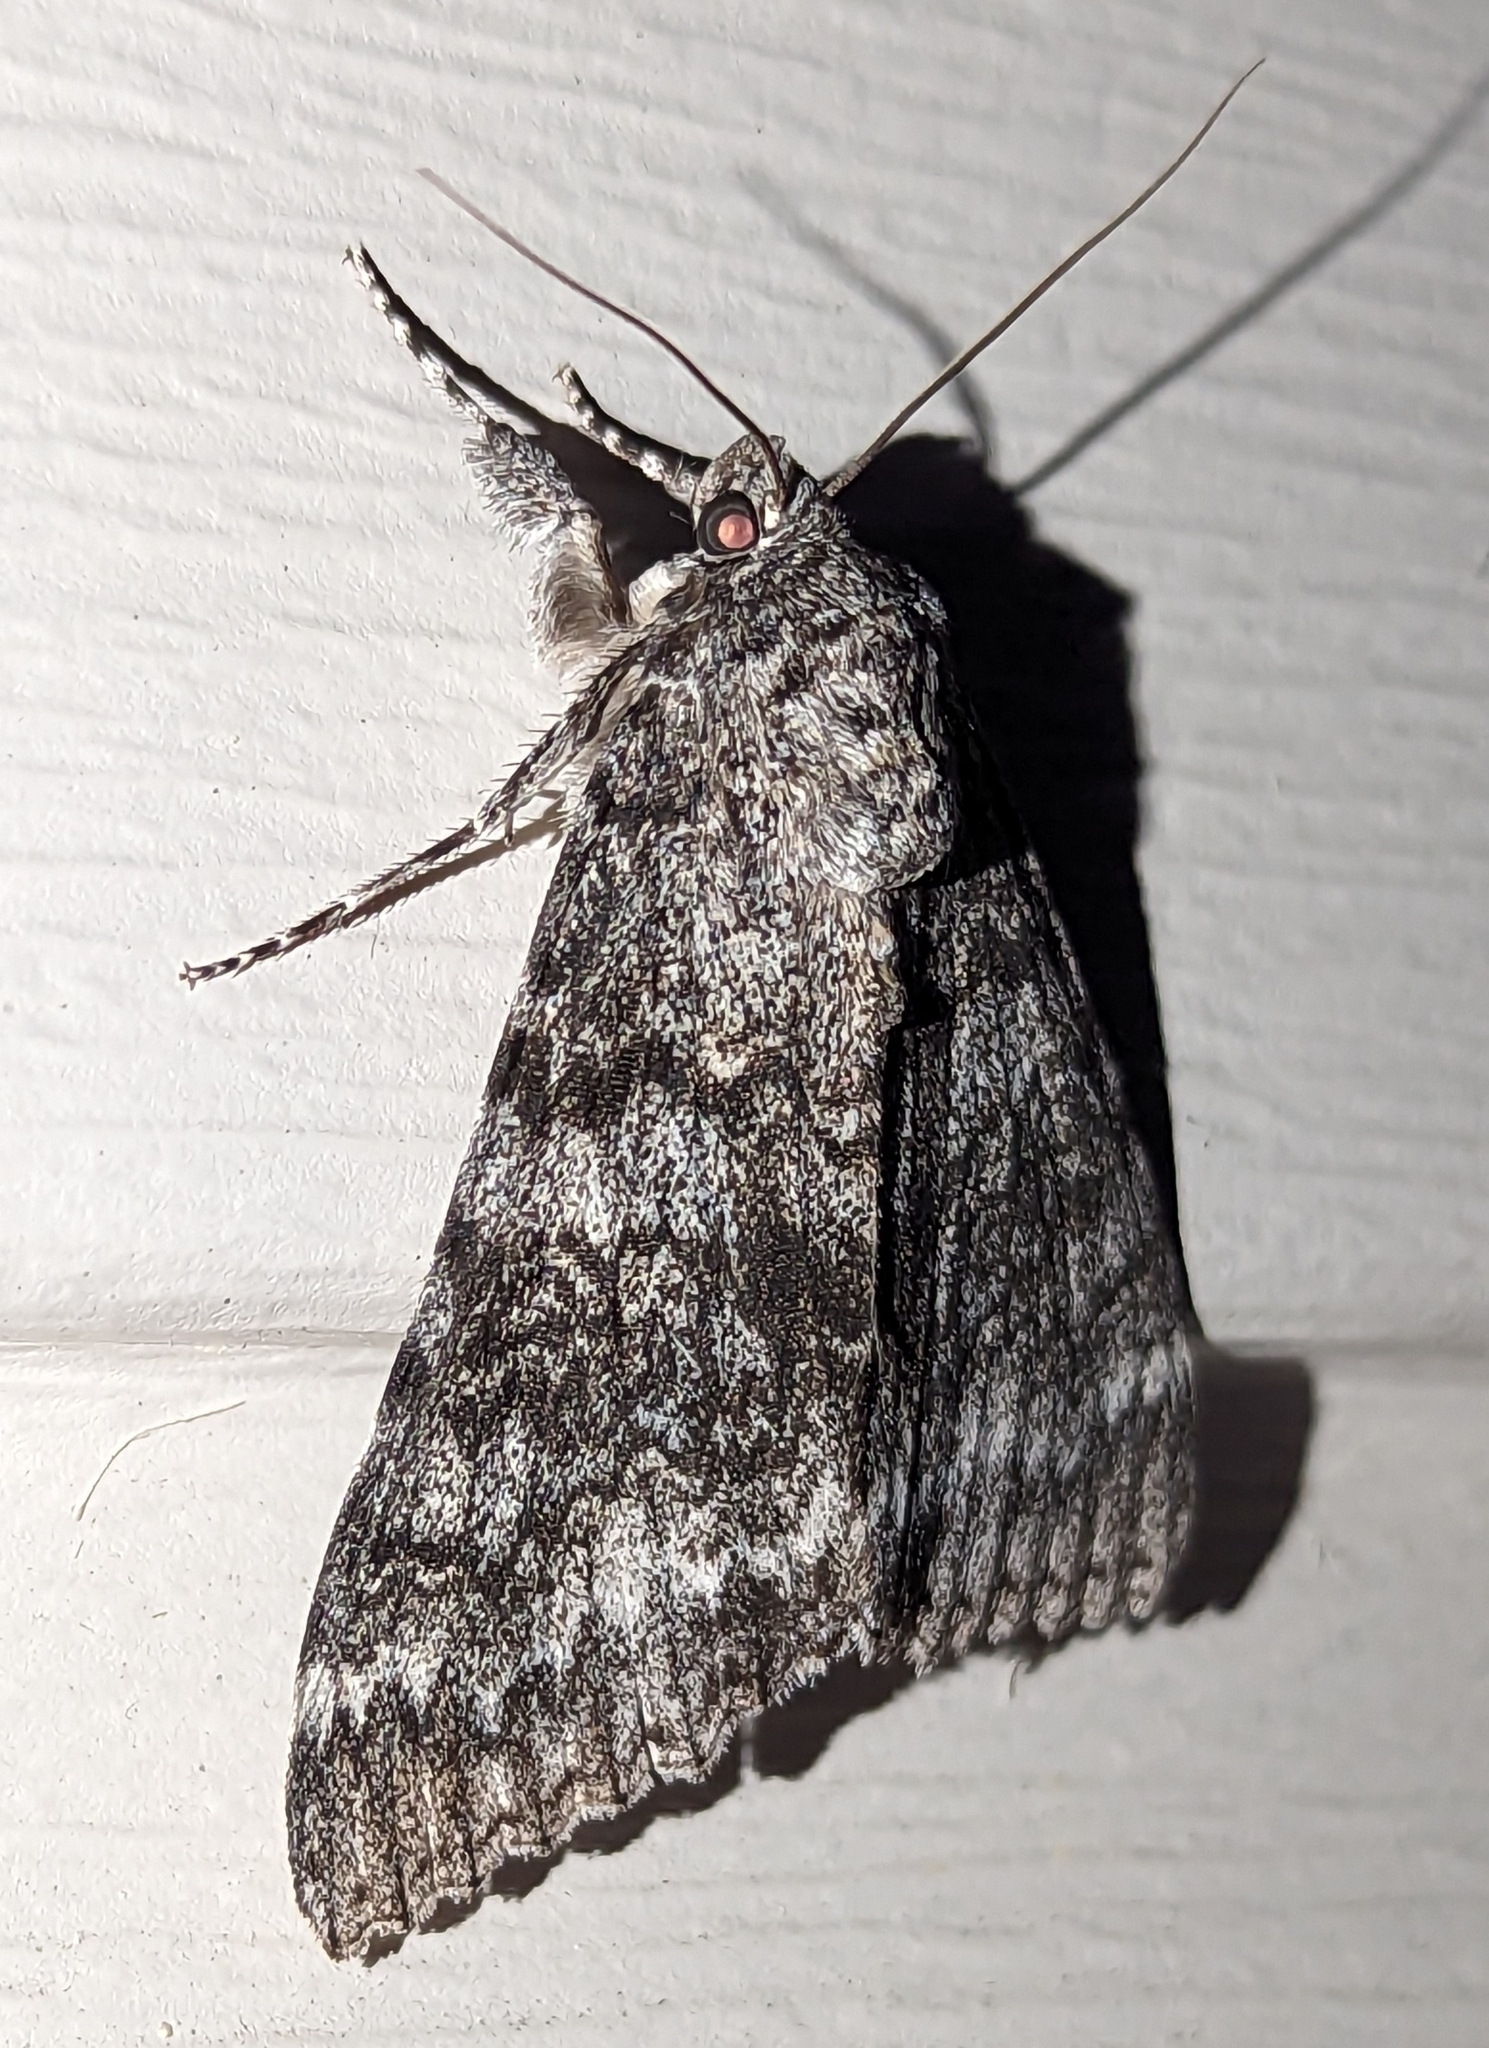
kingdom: Animalia
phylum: Arthropoda
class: Insecta
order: Lepidoptera
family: Erebidae
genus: Catocala
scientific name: Catocala unijuga
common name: Once-married underwing
